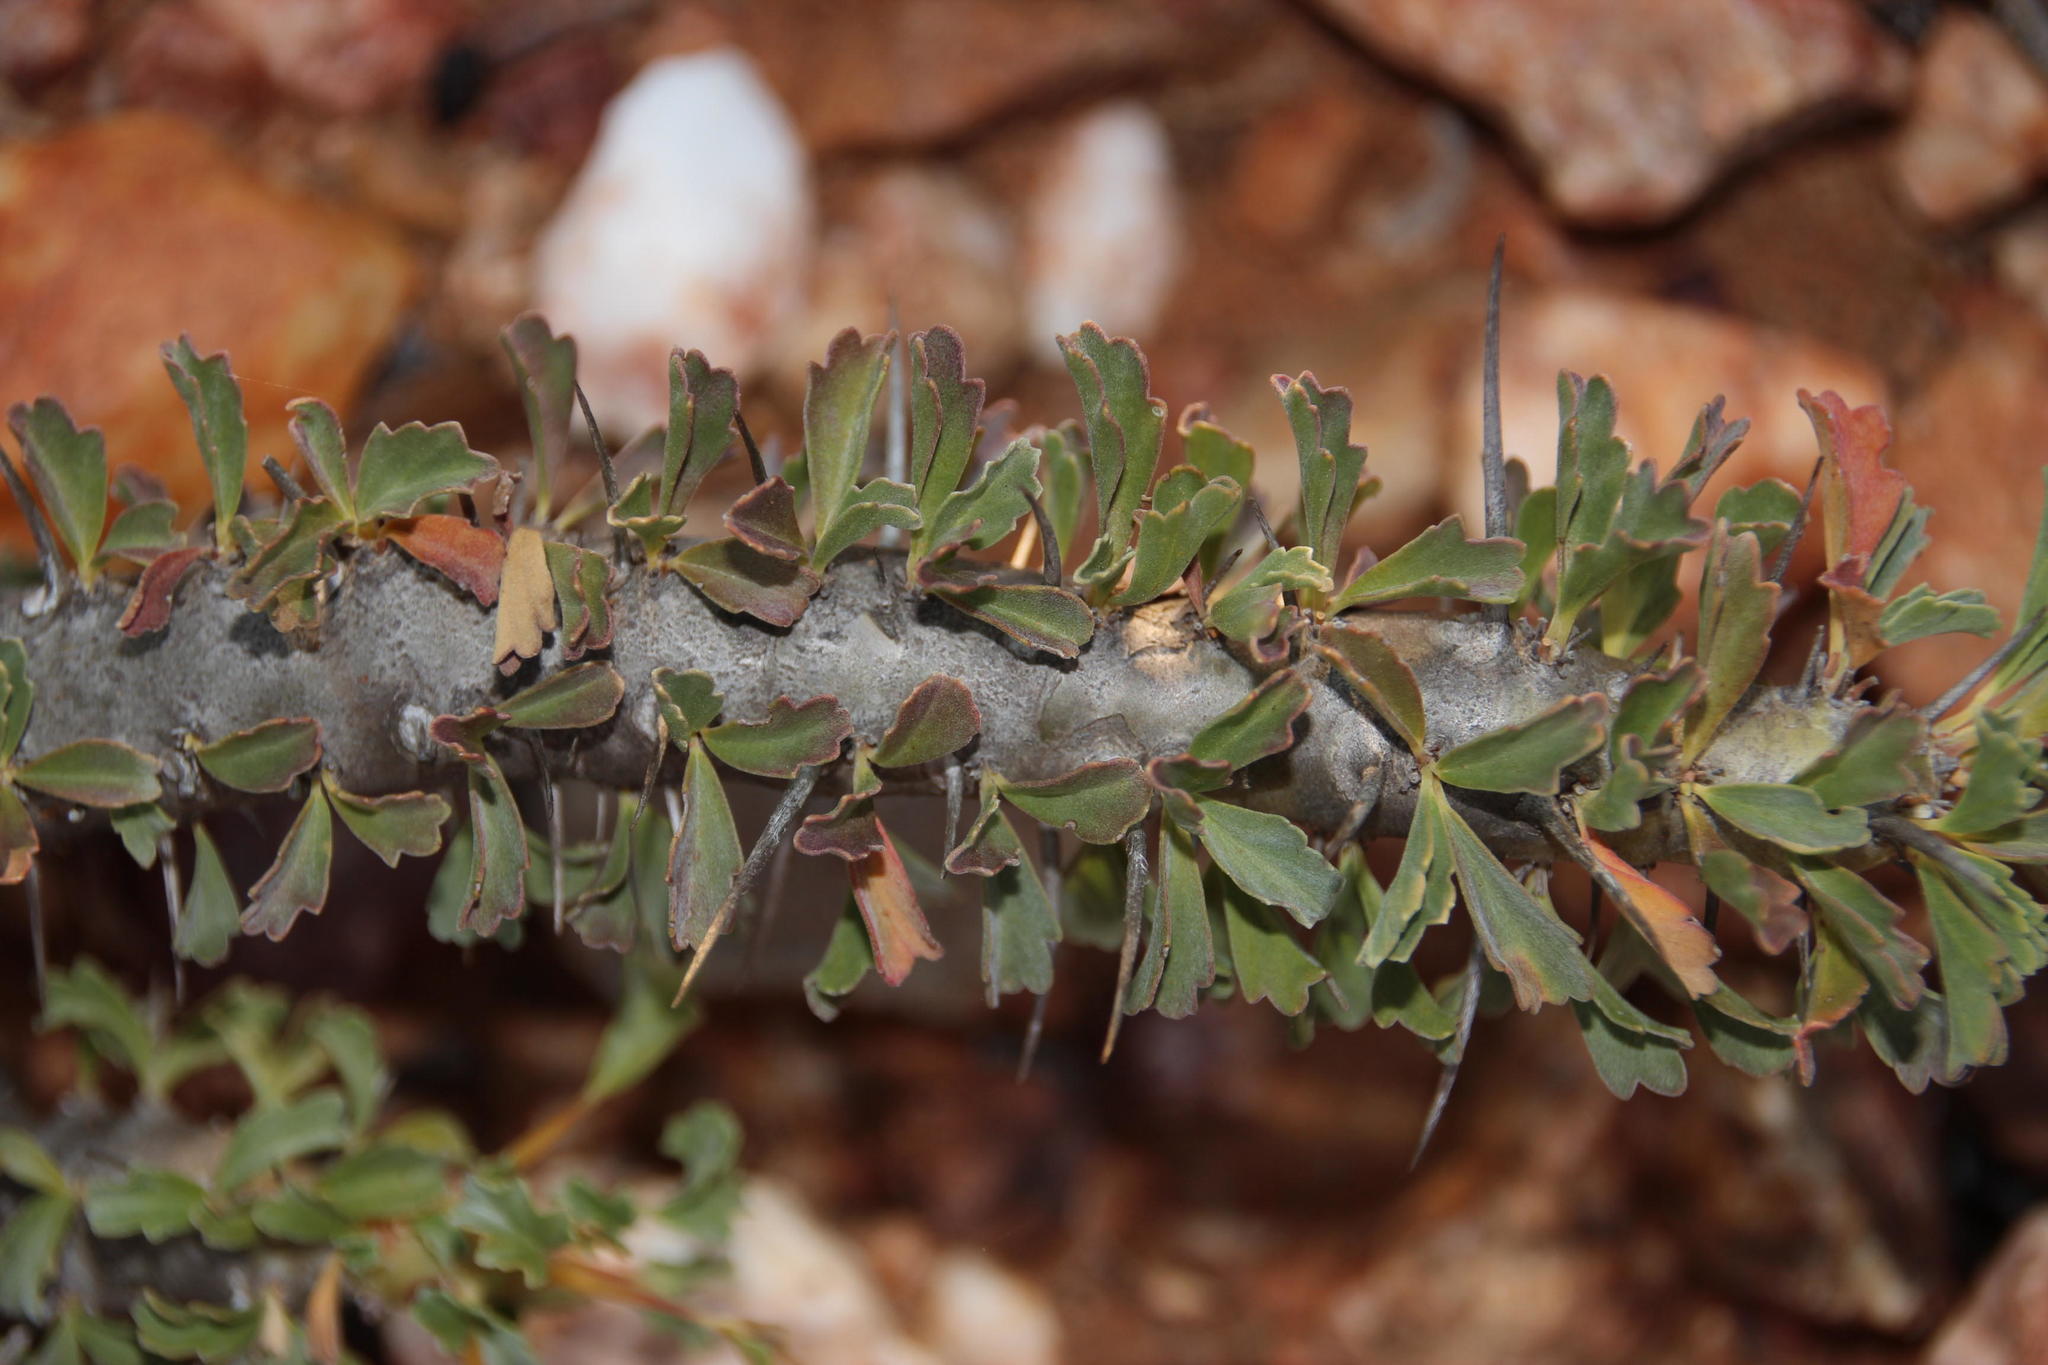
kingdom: Plantae
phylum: Tracheophyta
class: Magnoliopsida
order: Geraniales
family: Geraniaceae
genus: Monsonia
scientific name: Monsonia crassicaulis
